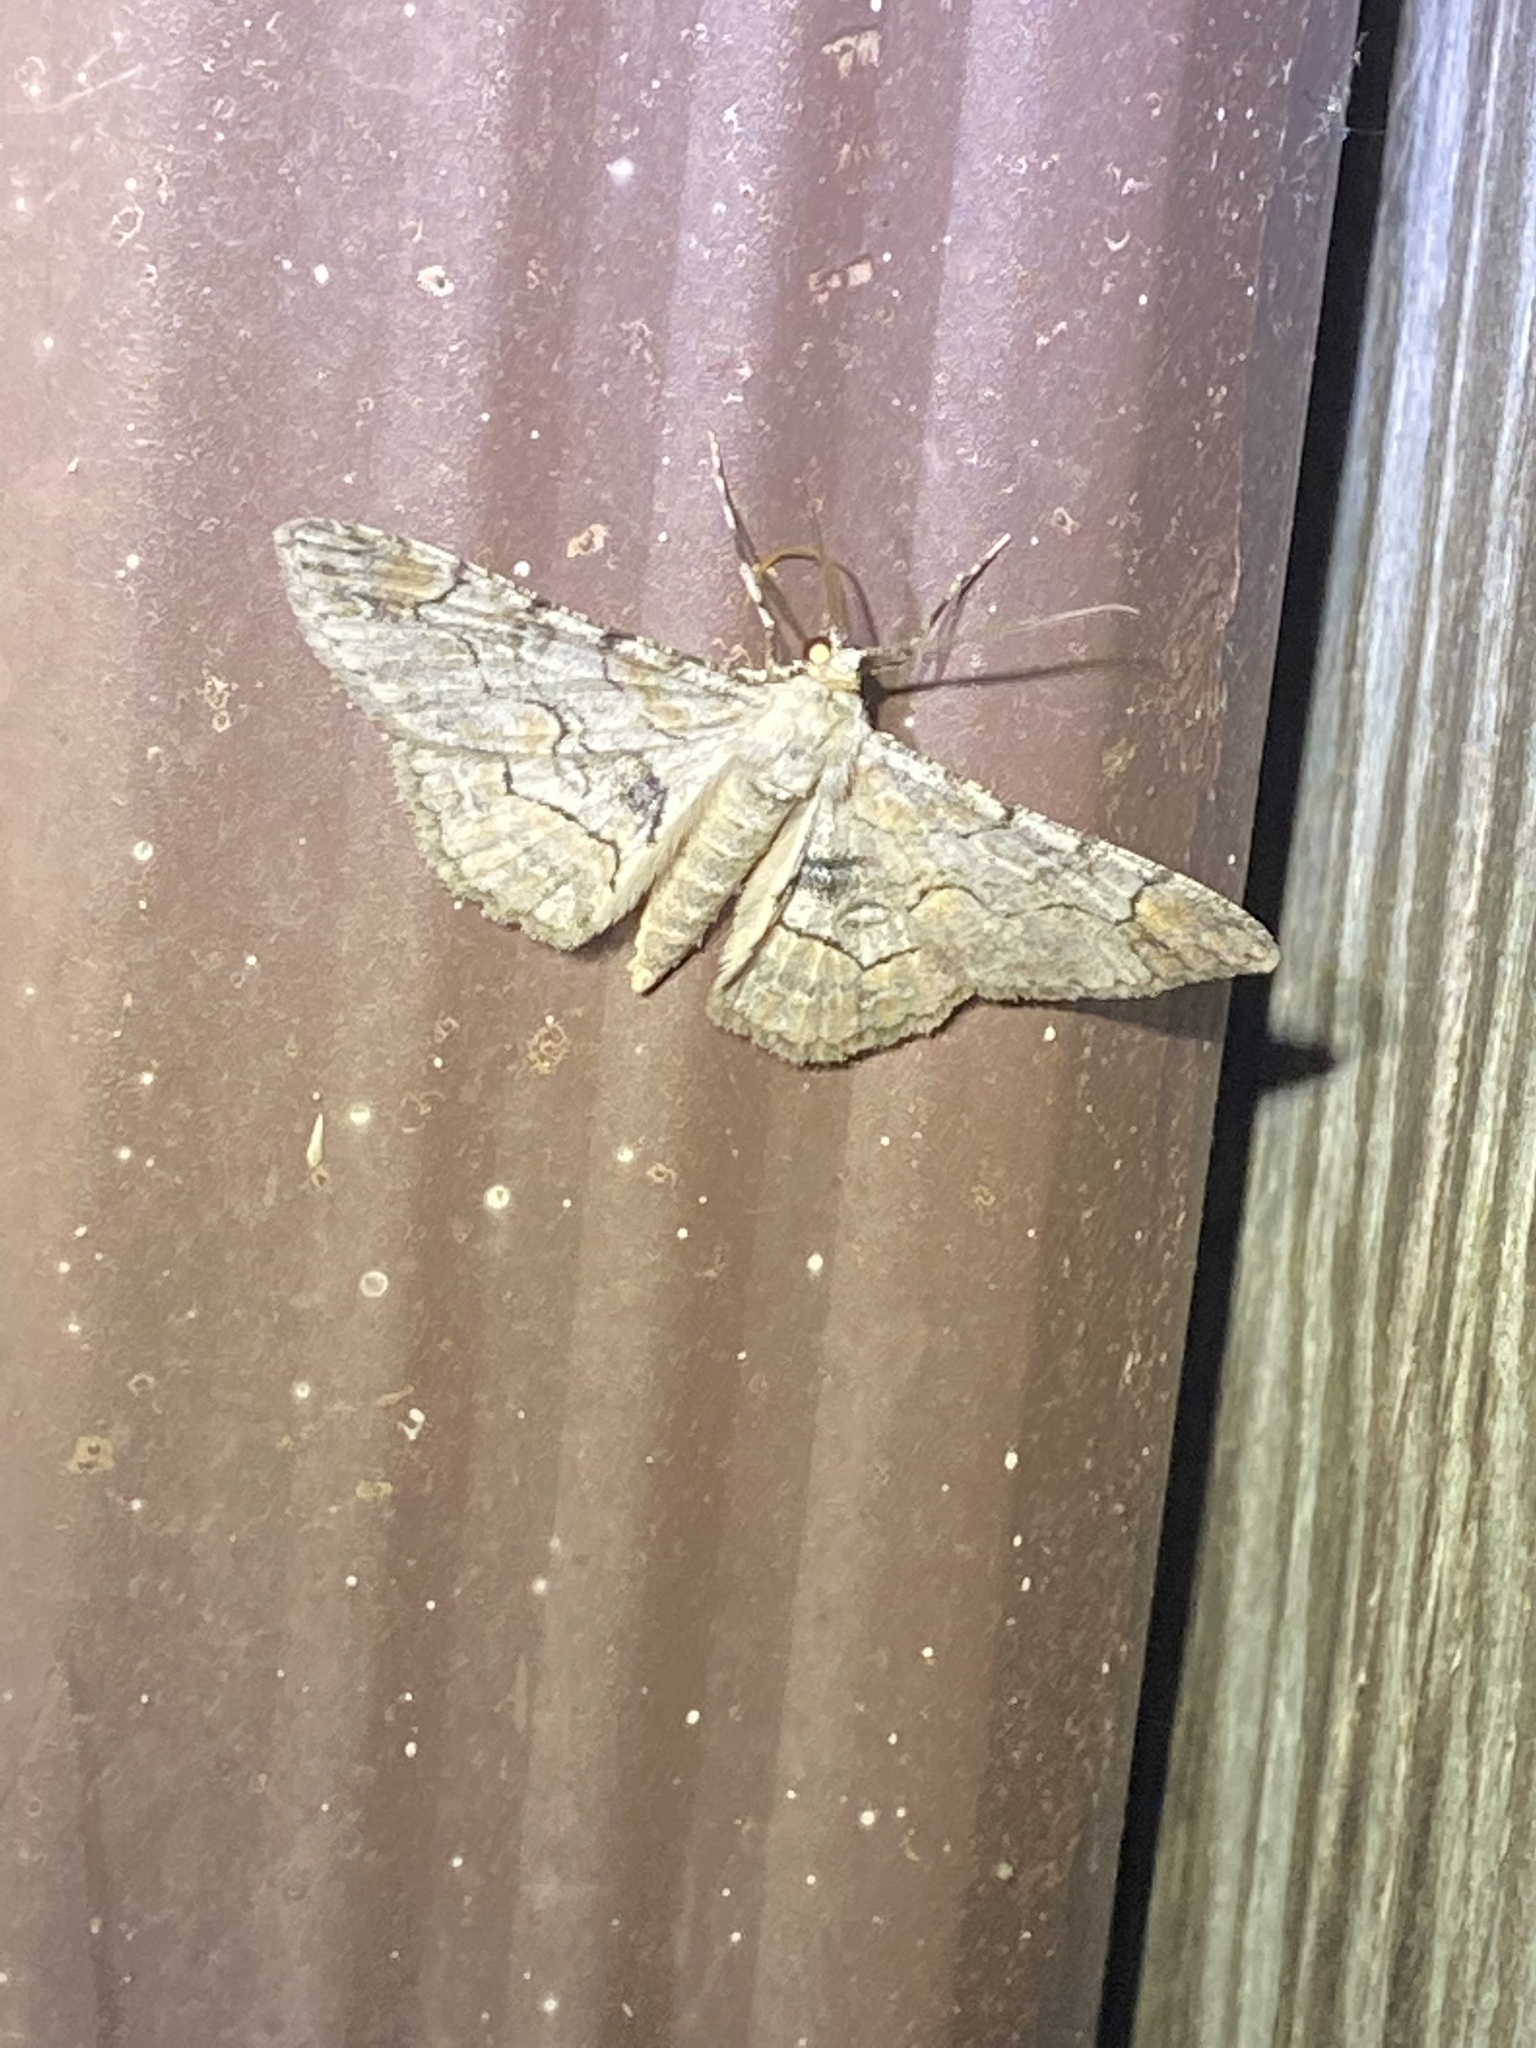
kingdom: Animalia
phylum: Arthropoda
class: Insecta
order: Lepidoptera
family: Geometridae
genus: Iridopsis
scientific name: Iridopsis larvaria
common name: Bent-line gray
